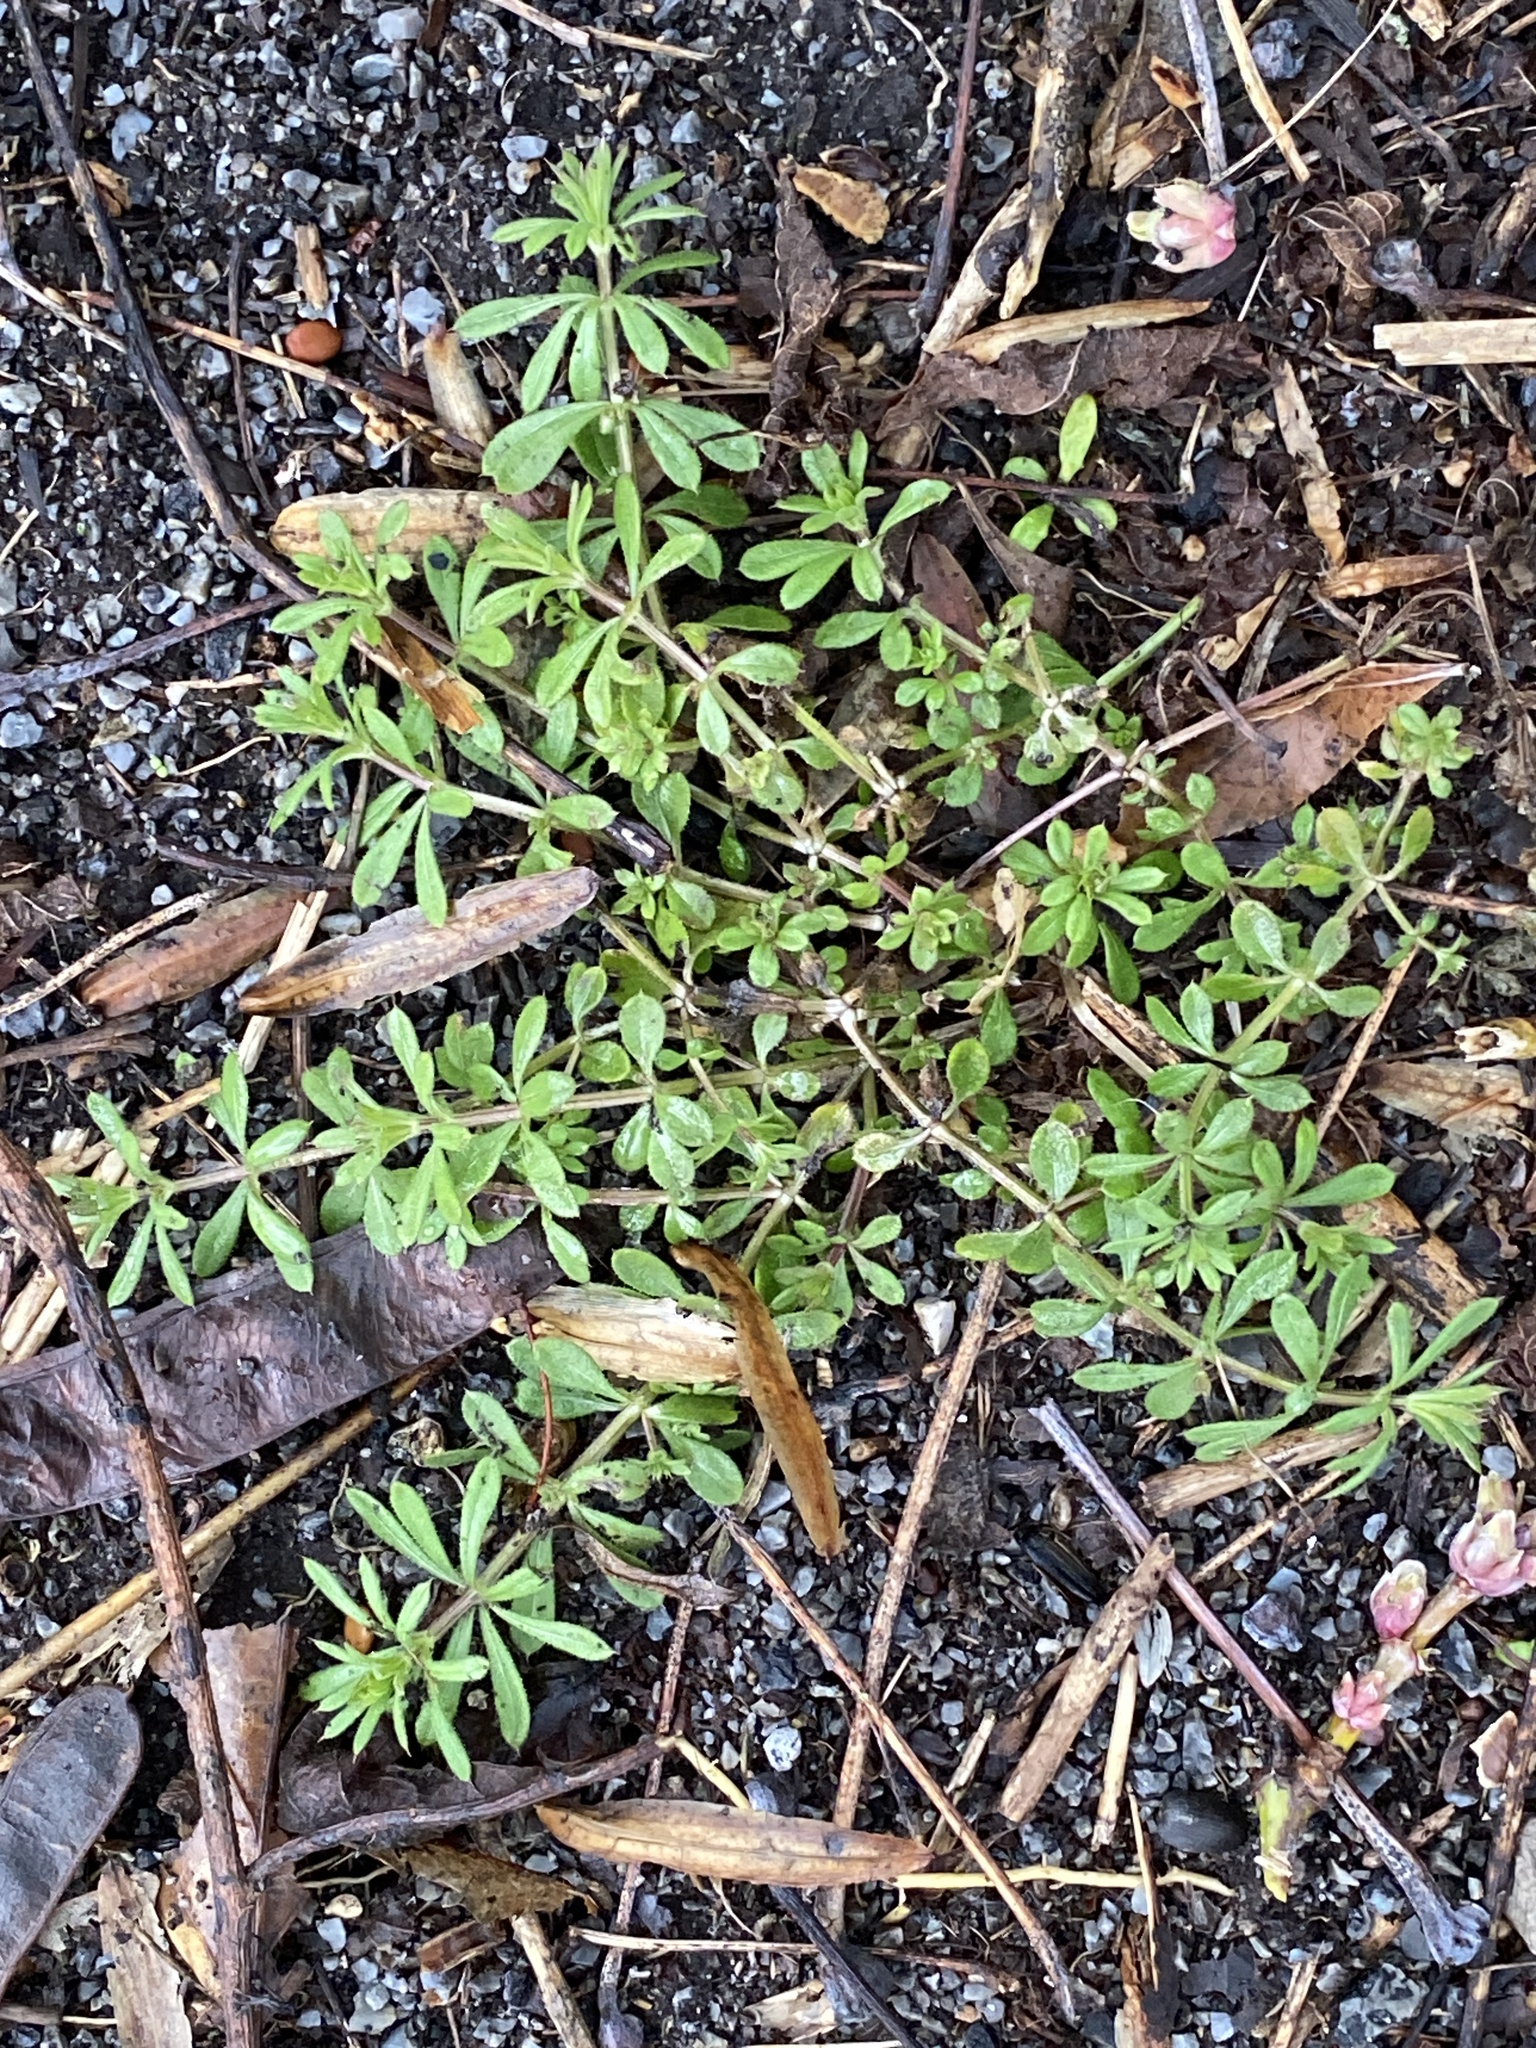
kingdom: Plantae
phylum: Tracheophyta
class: Magnoliopsida
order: Gentianales
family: Rubiaceae
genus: Galium
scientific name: Galium aparine
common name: Cleavers
